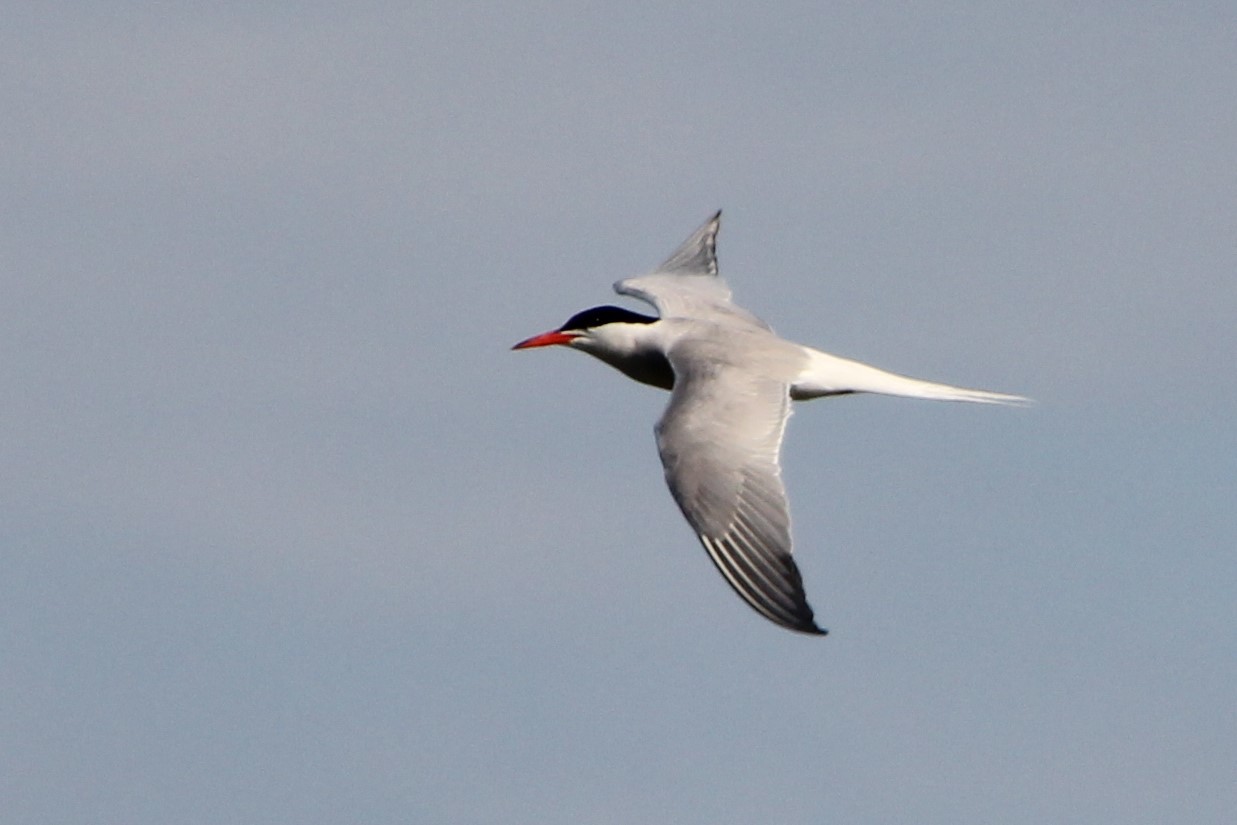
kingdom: Animalia
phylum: Chordata
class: Aves
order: Charadriiformes
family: Laridae
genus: Sterna
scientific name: Sterna hirundo
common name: Common tern
